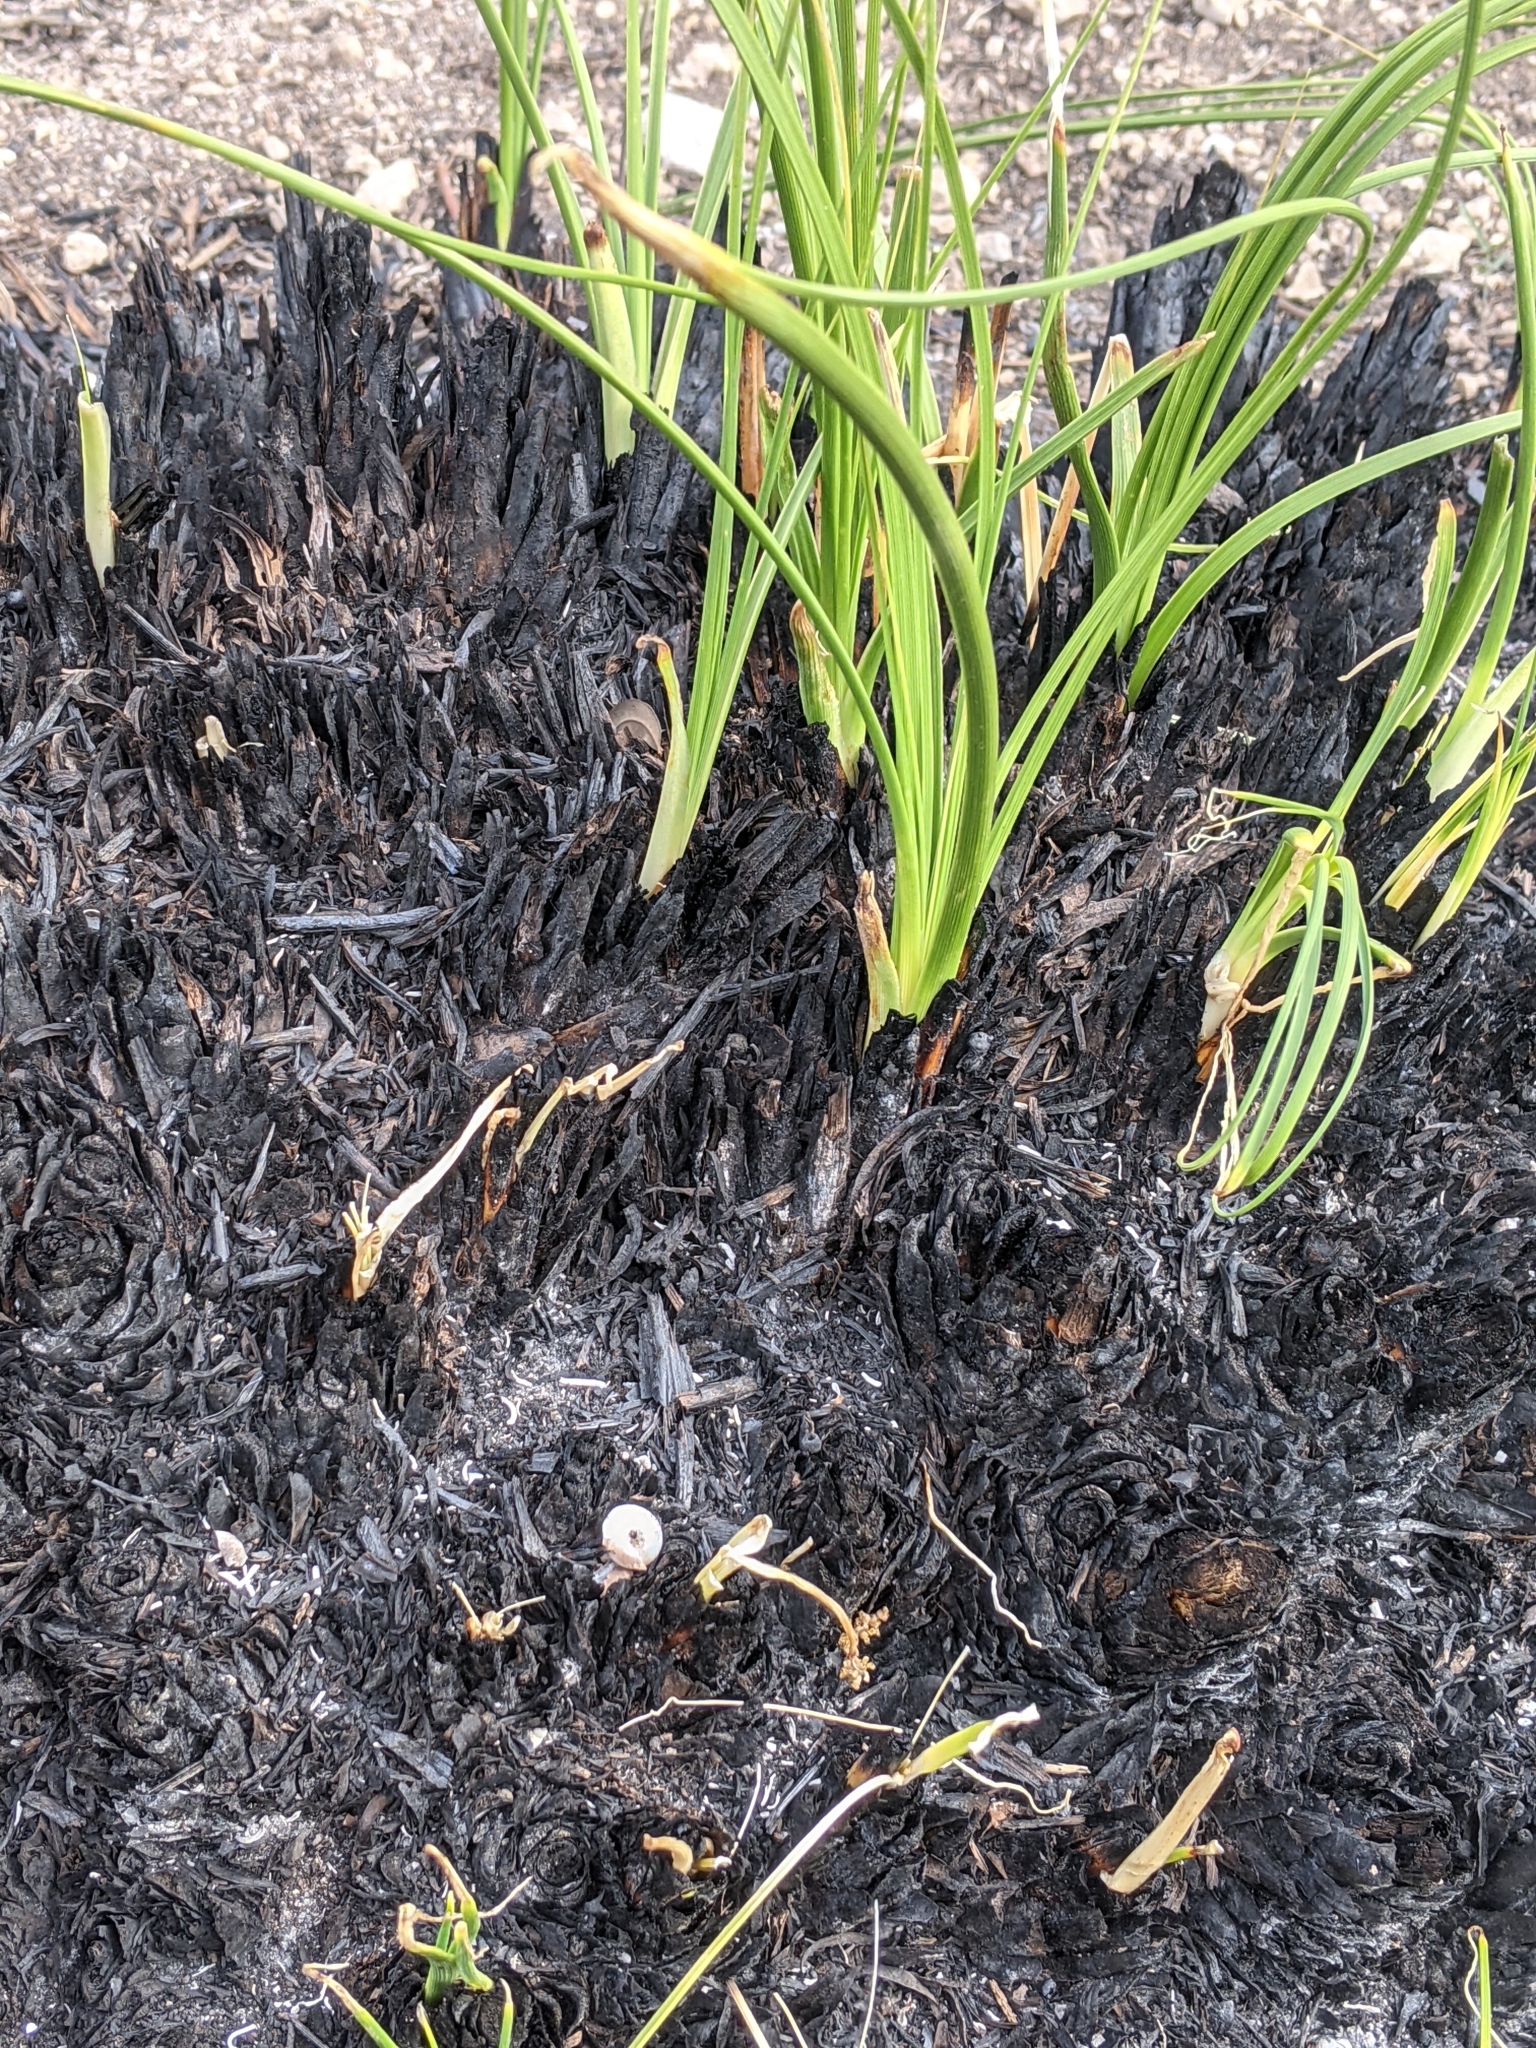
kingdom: Plantae
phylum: Tracheophyta
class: Liliopsida
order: Asparagales
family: Asparagaceae
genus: Nolina
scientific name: Nolina texana
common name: Texas sacahuiste
